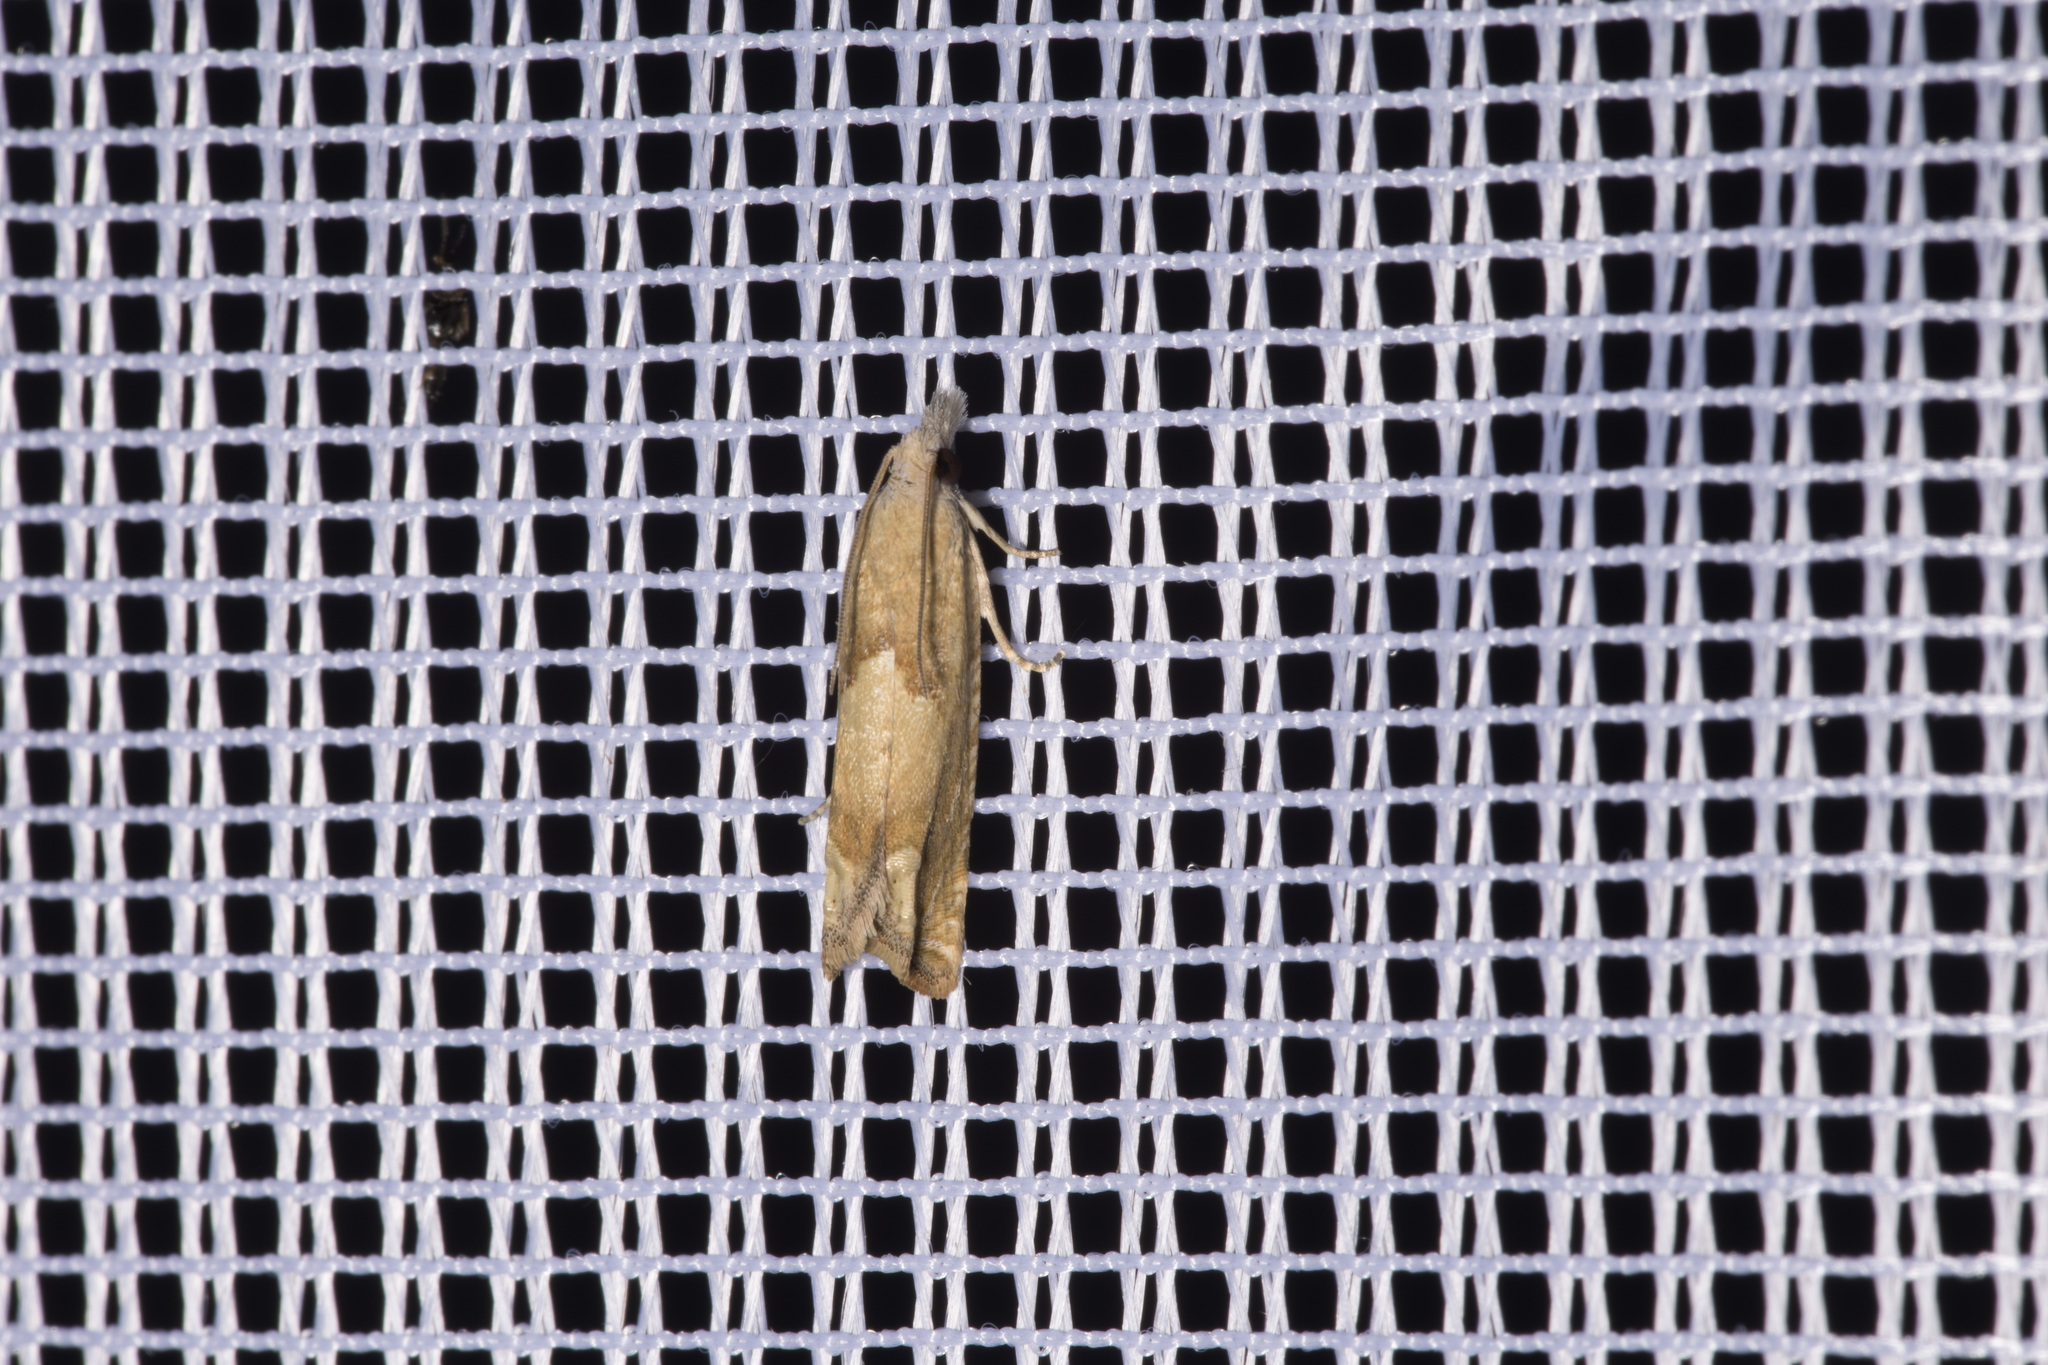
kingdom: Animalia
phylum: Arthropoda
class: Insecta
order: Lepidoptera
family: Tortricidae
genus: Eucosma
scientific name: Eucosma conterminana
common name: Pale lettuce bell
